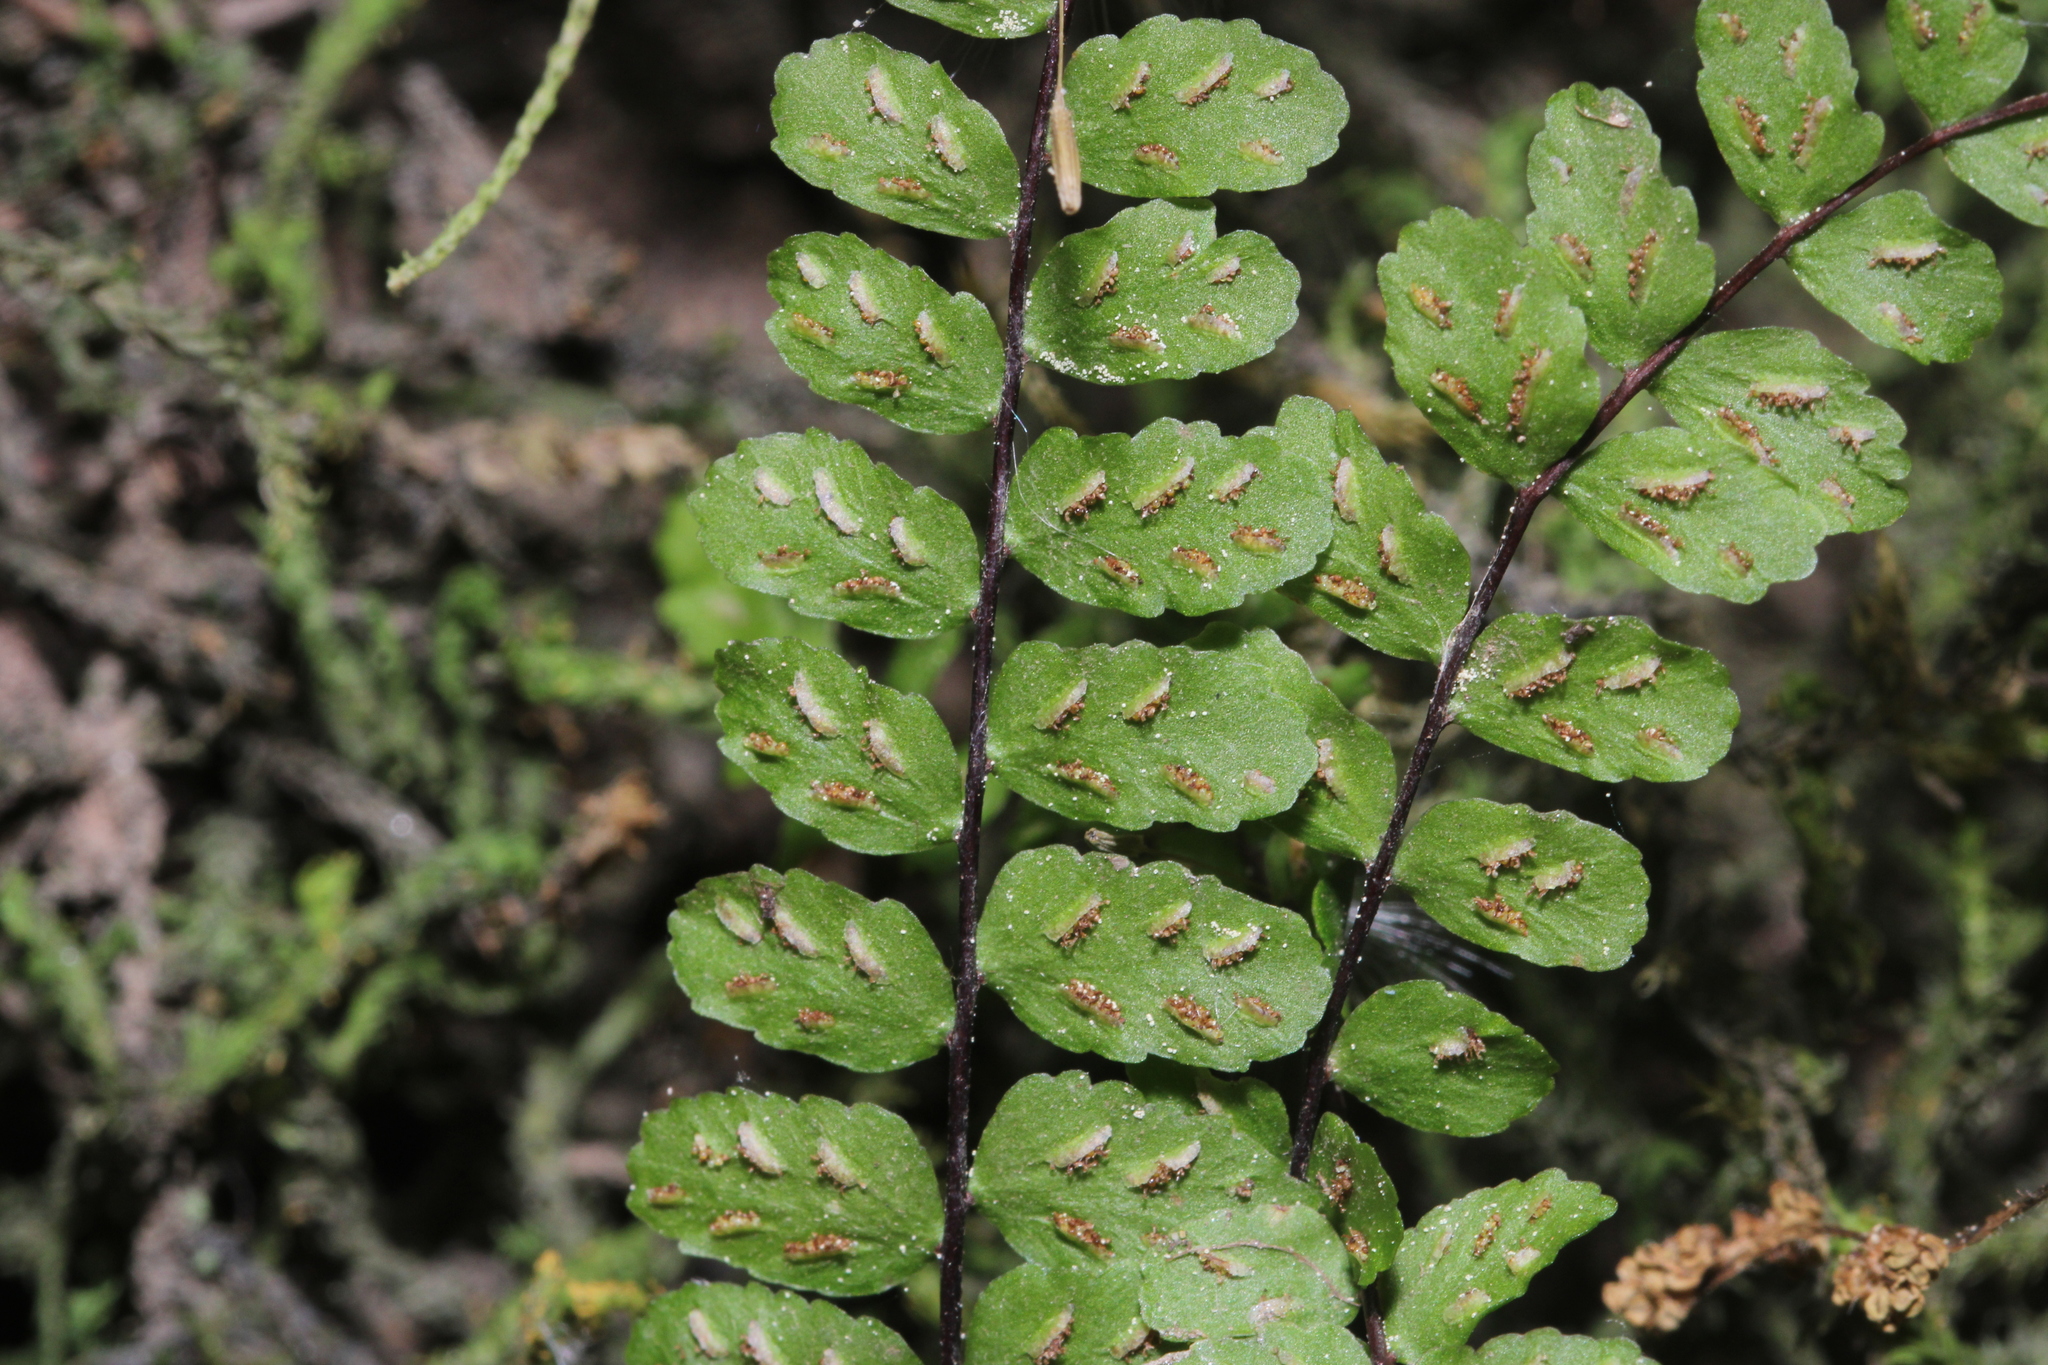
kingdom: Plantae
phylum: Tracheophyta
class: Polypodiopsida
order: Polypodiales
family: Aspleniaceae
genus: Asplenium
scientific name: Asplenium trichomanes
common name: Maidenhair spleenwort
